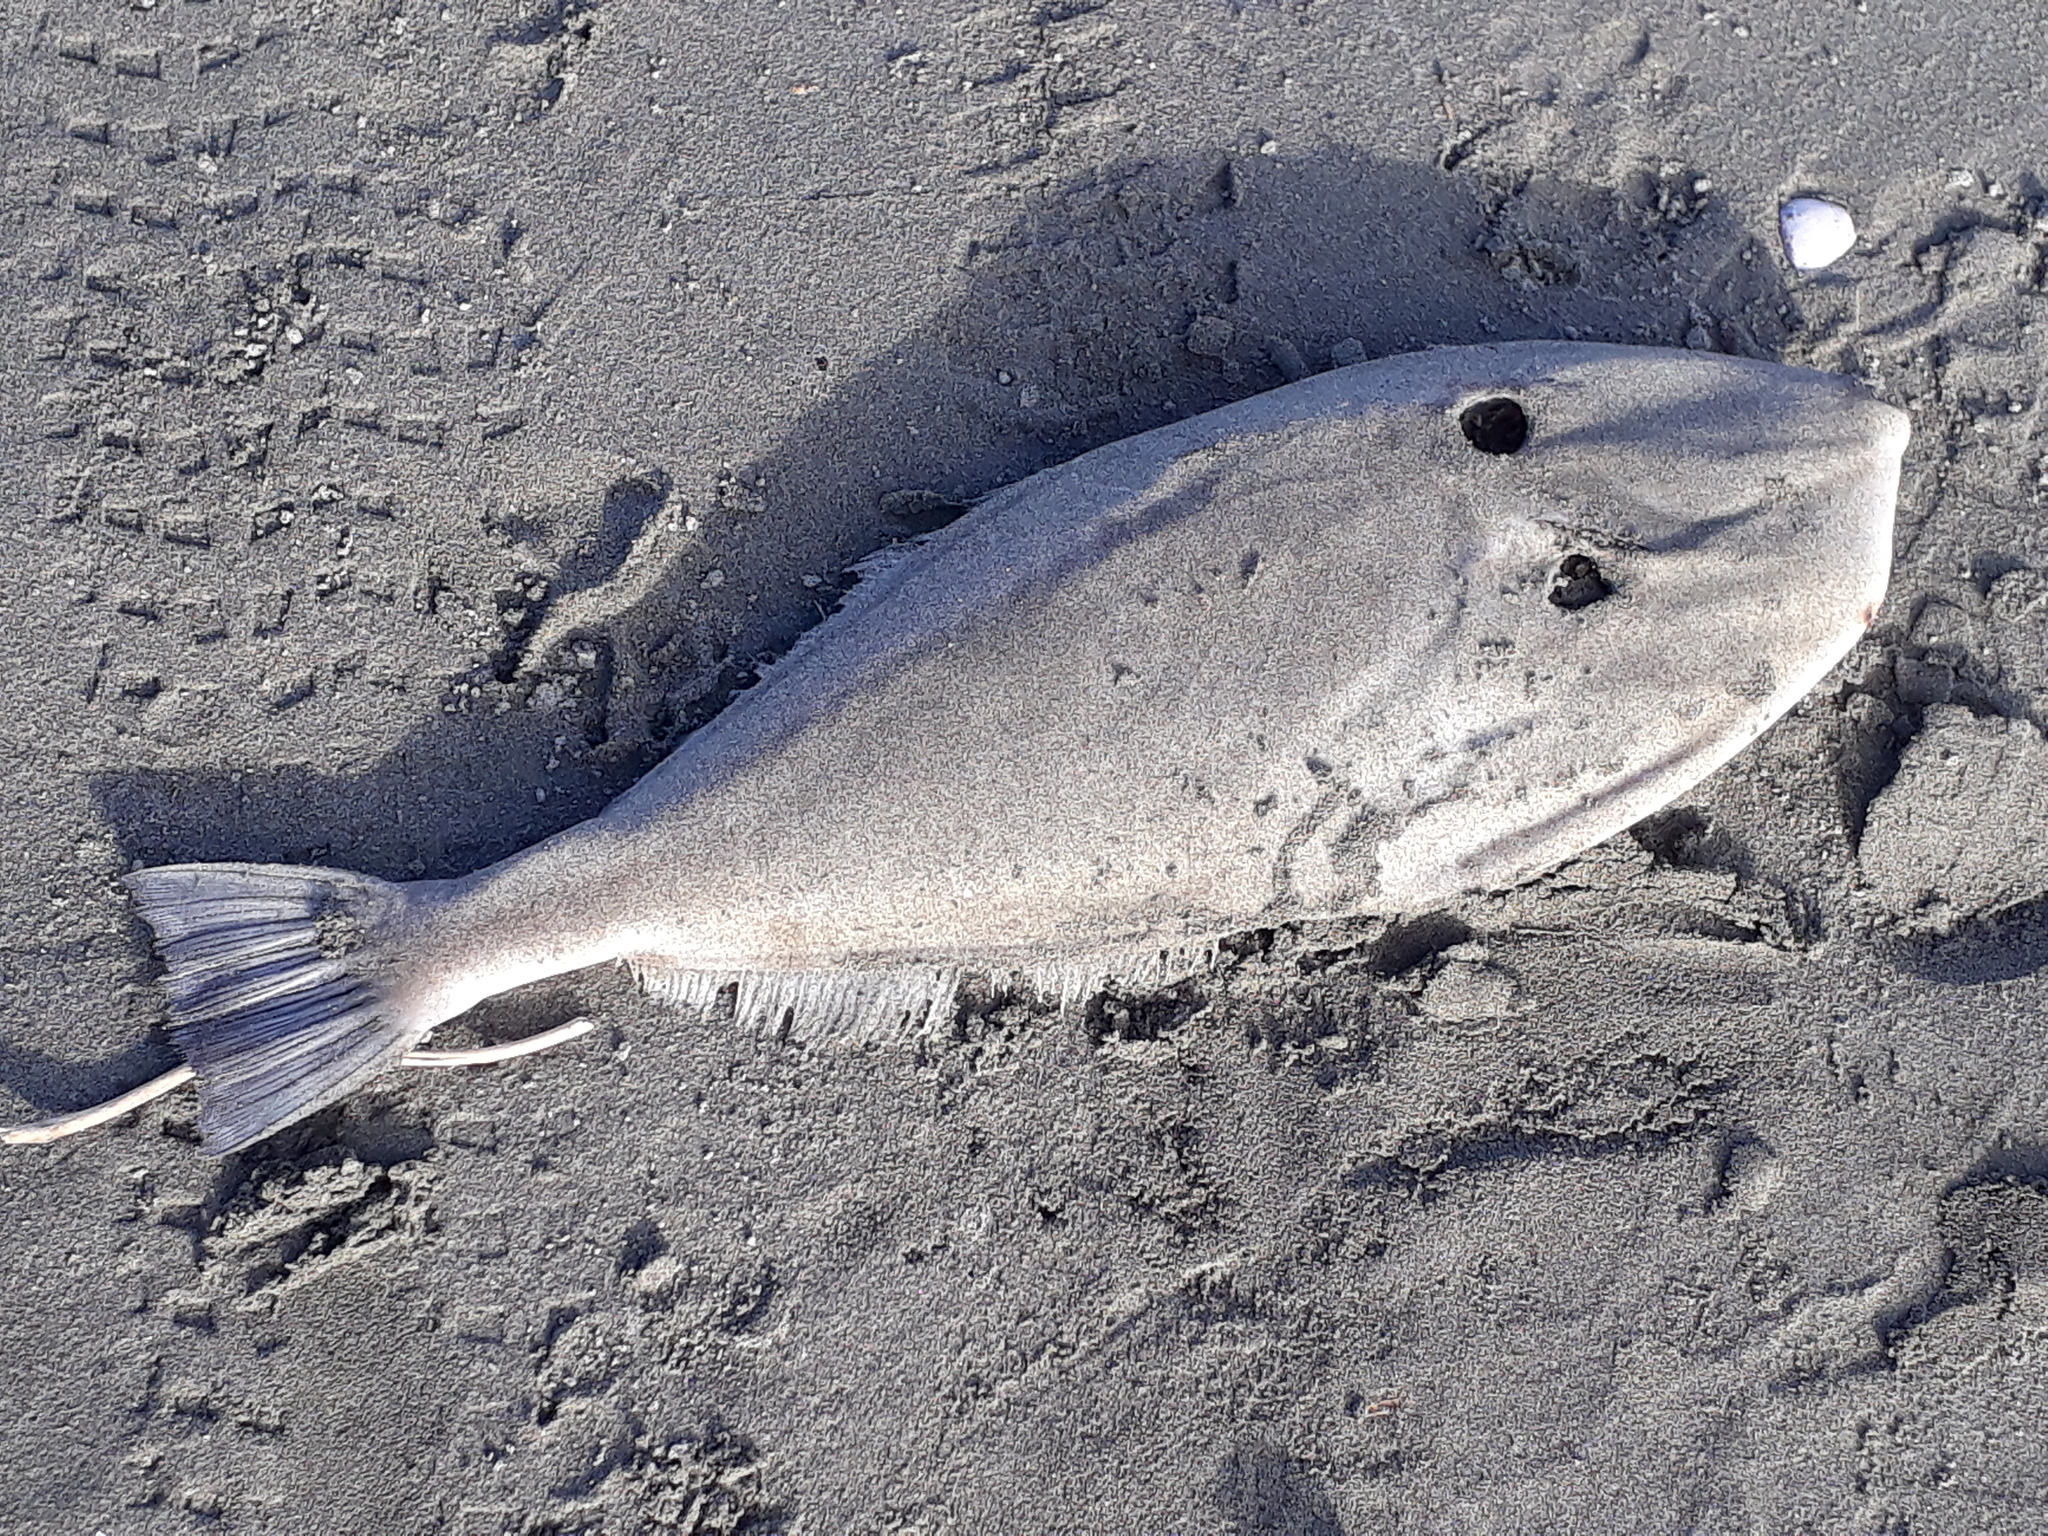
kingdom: Animalia
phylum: Chordata
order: Tetraodontiformes
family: Monacanthidae
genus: Aluterus
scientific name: Aluterus monoceros
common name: Batfish
